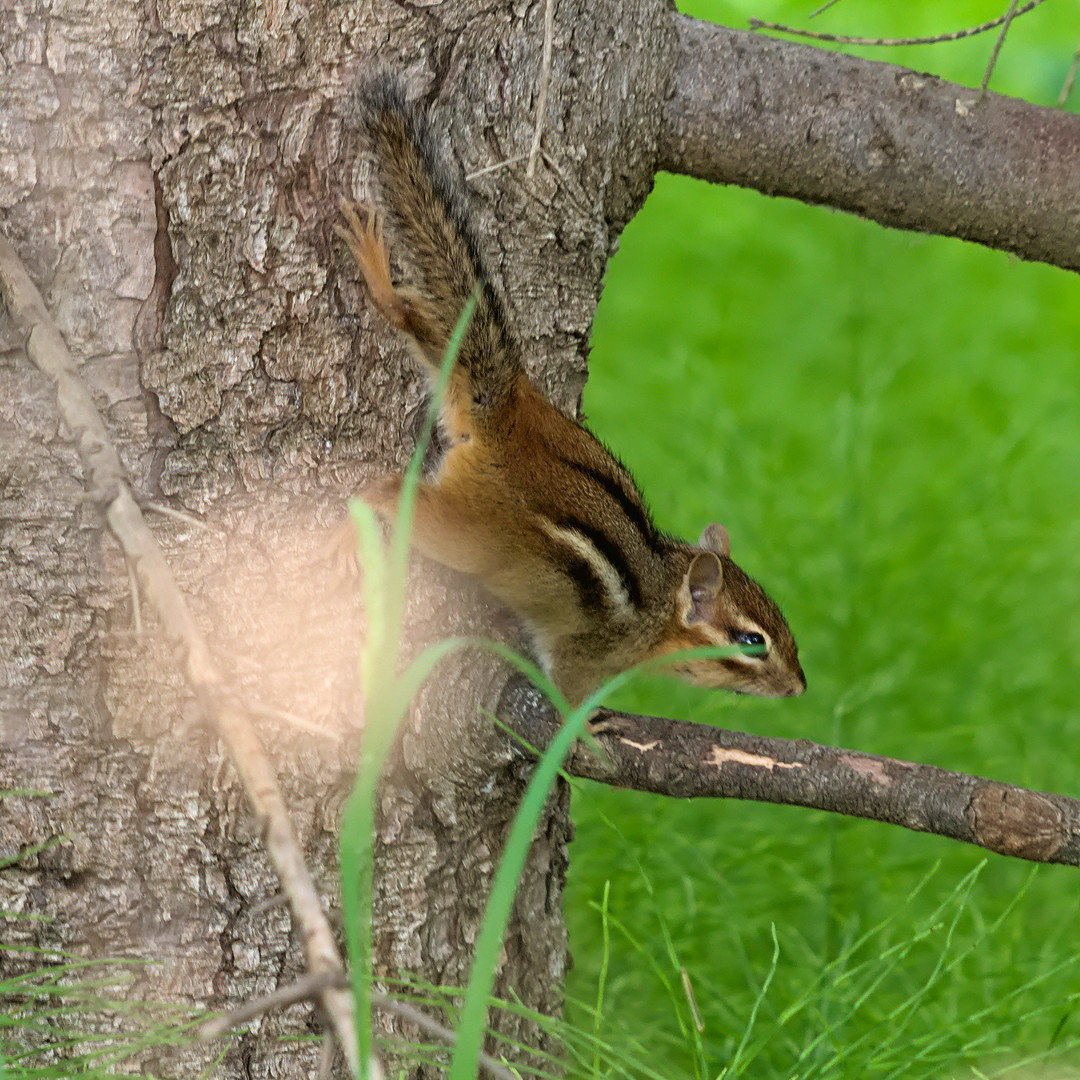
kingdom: Animalia
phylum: Chordata
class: Mammalia
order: Rodentia
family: Sciuridae
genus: Tamias
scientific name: Tamias striatus
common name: Eastern chipmunk
